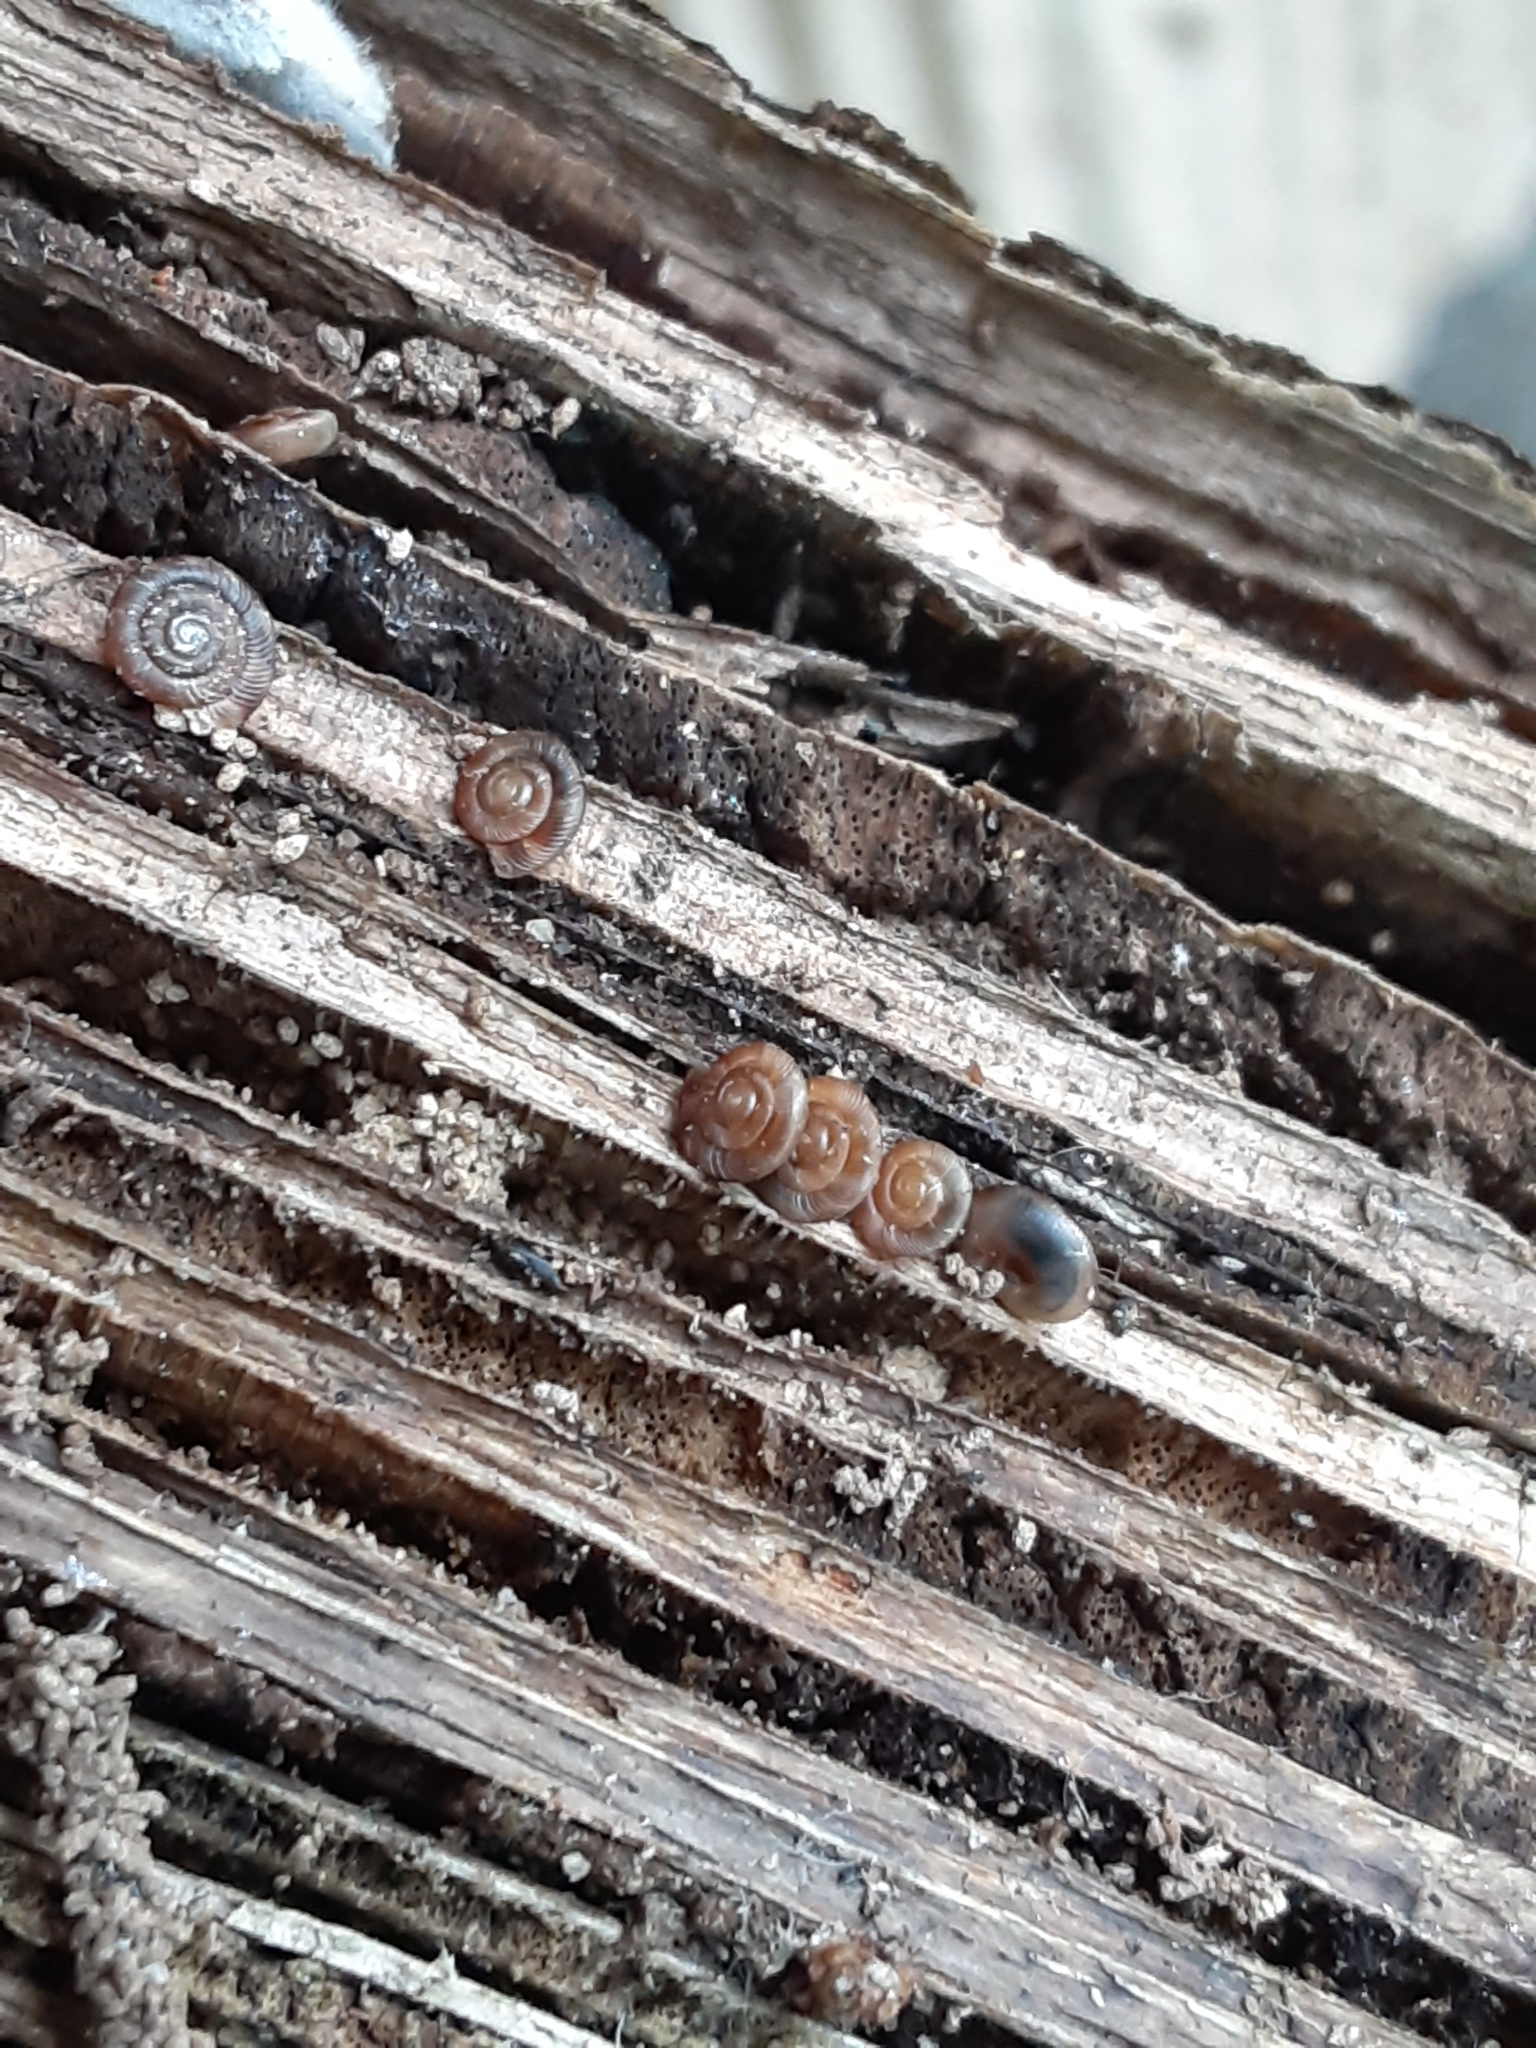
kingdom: Animalia
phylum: Mollusca
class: Gastropoda
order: Stylommatophora
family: Discidae
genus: Discus
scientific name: Discus rotundatus
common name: Rounded snail
